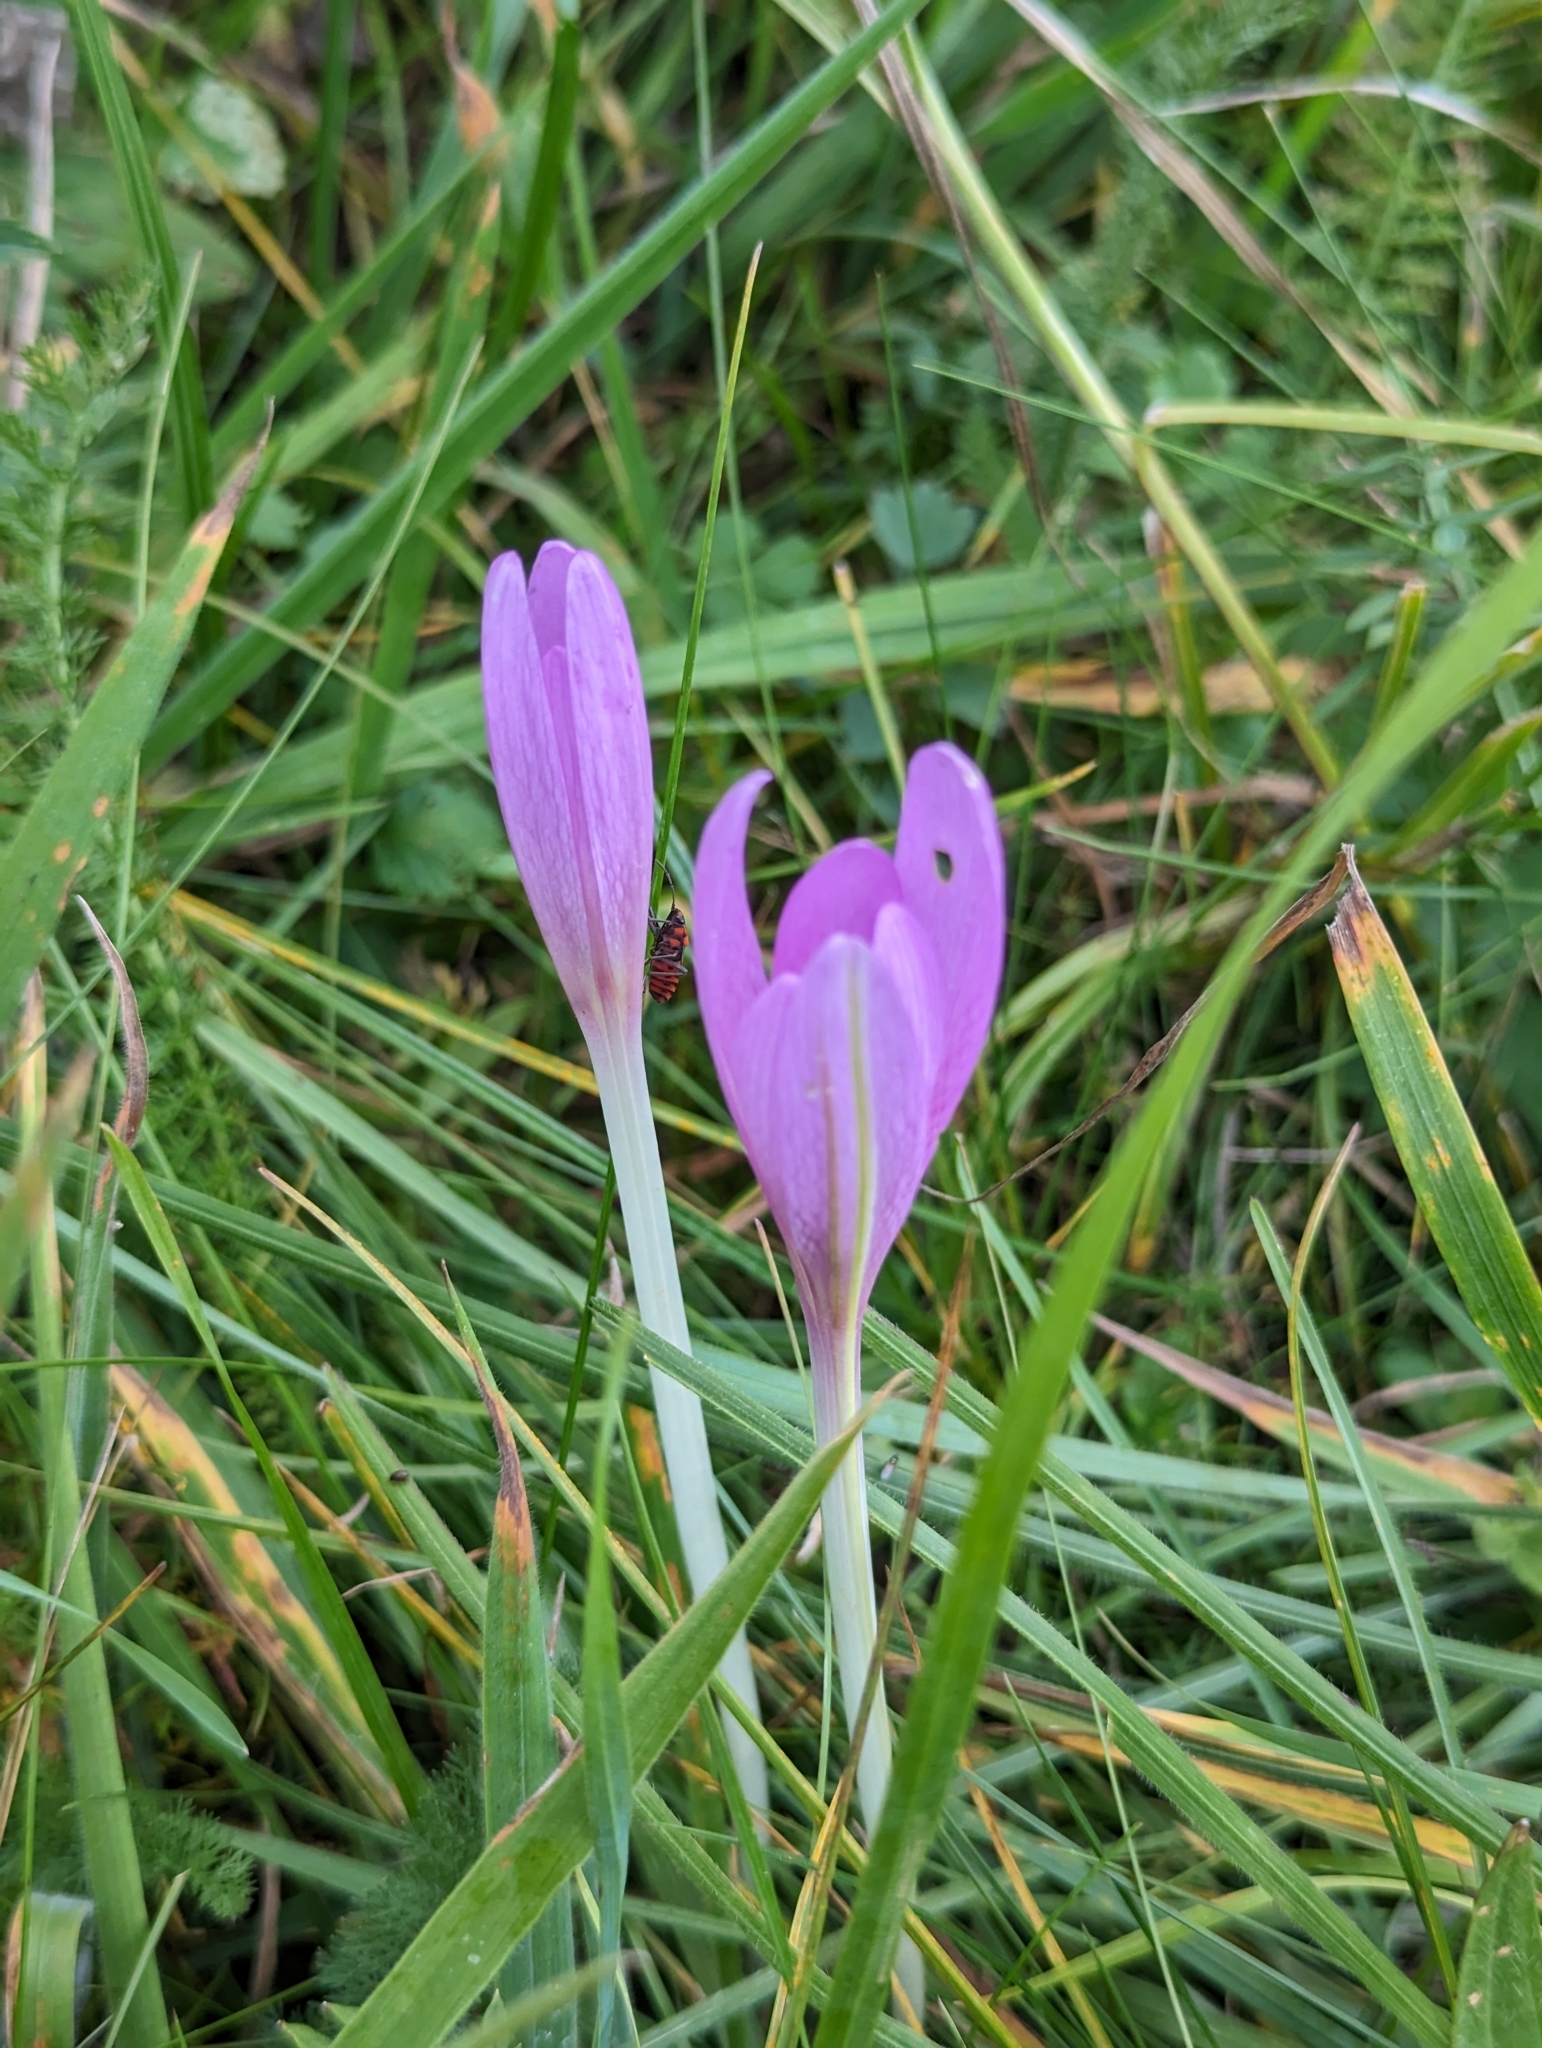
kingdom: Plantae
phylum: Tracheophyta
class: Liliopsida
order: Liliales
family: Colchicaceae
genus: Colchicum
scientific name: Colchicum autumnale
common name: Autumn crocus
